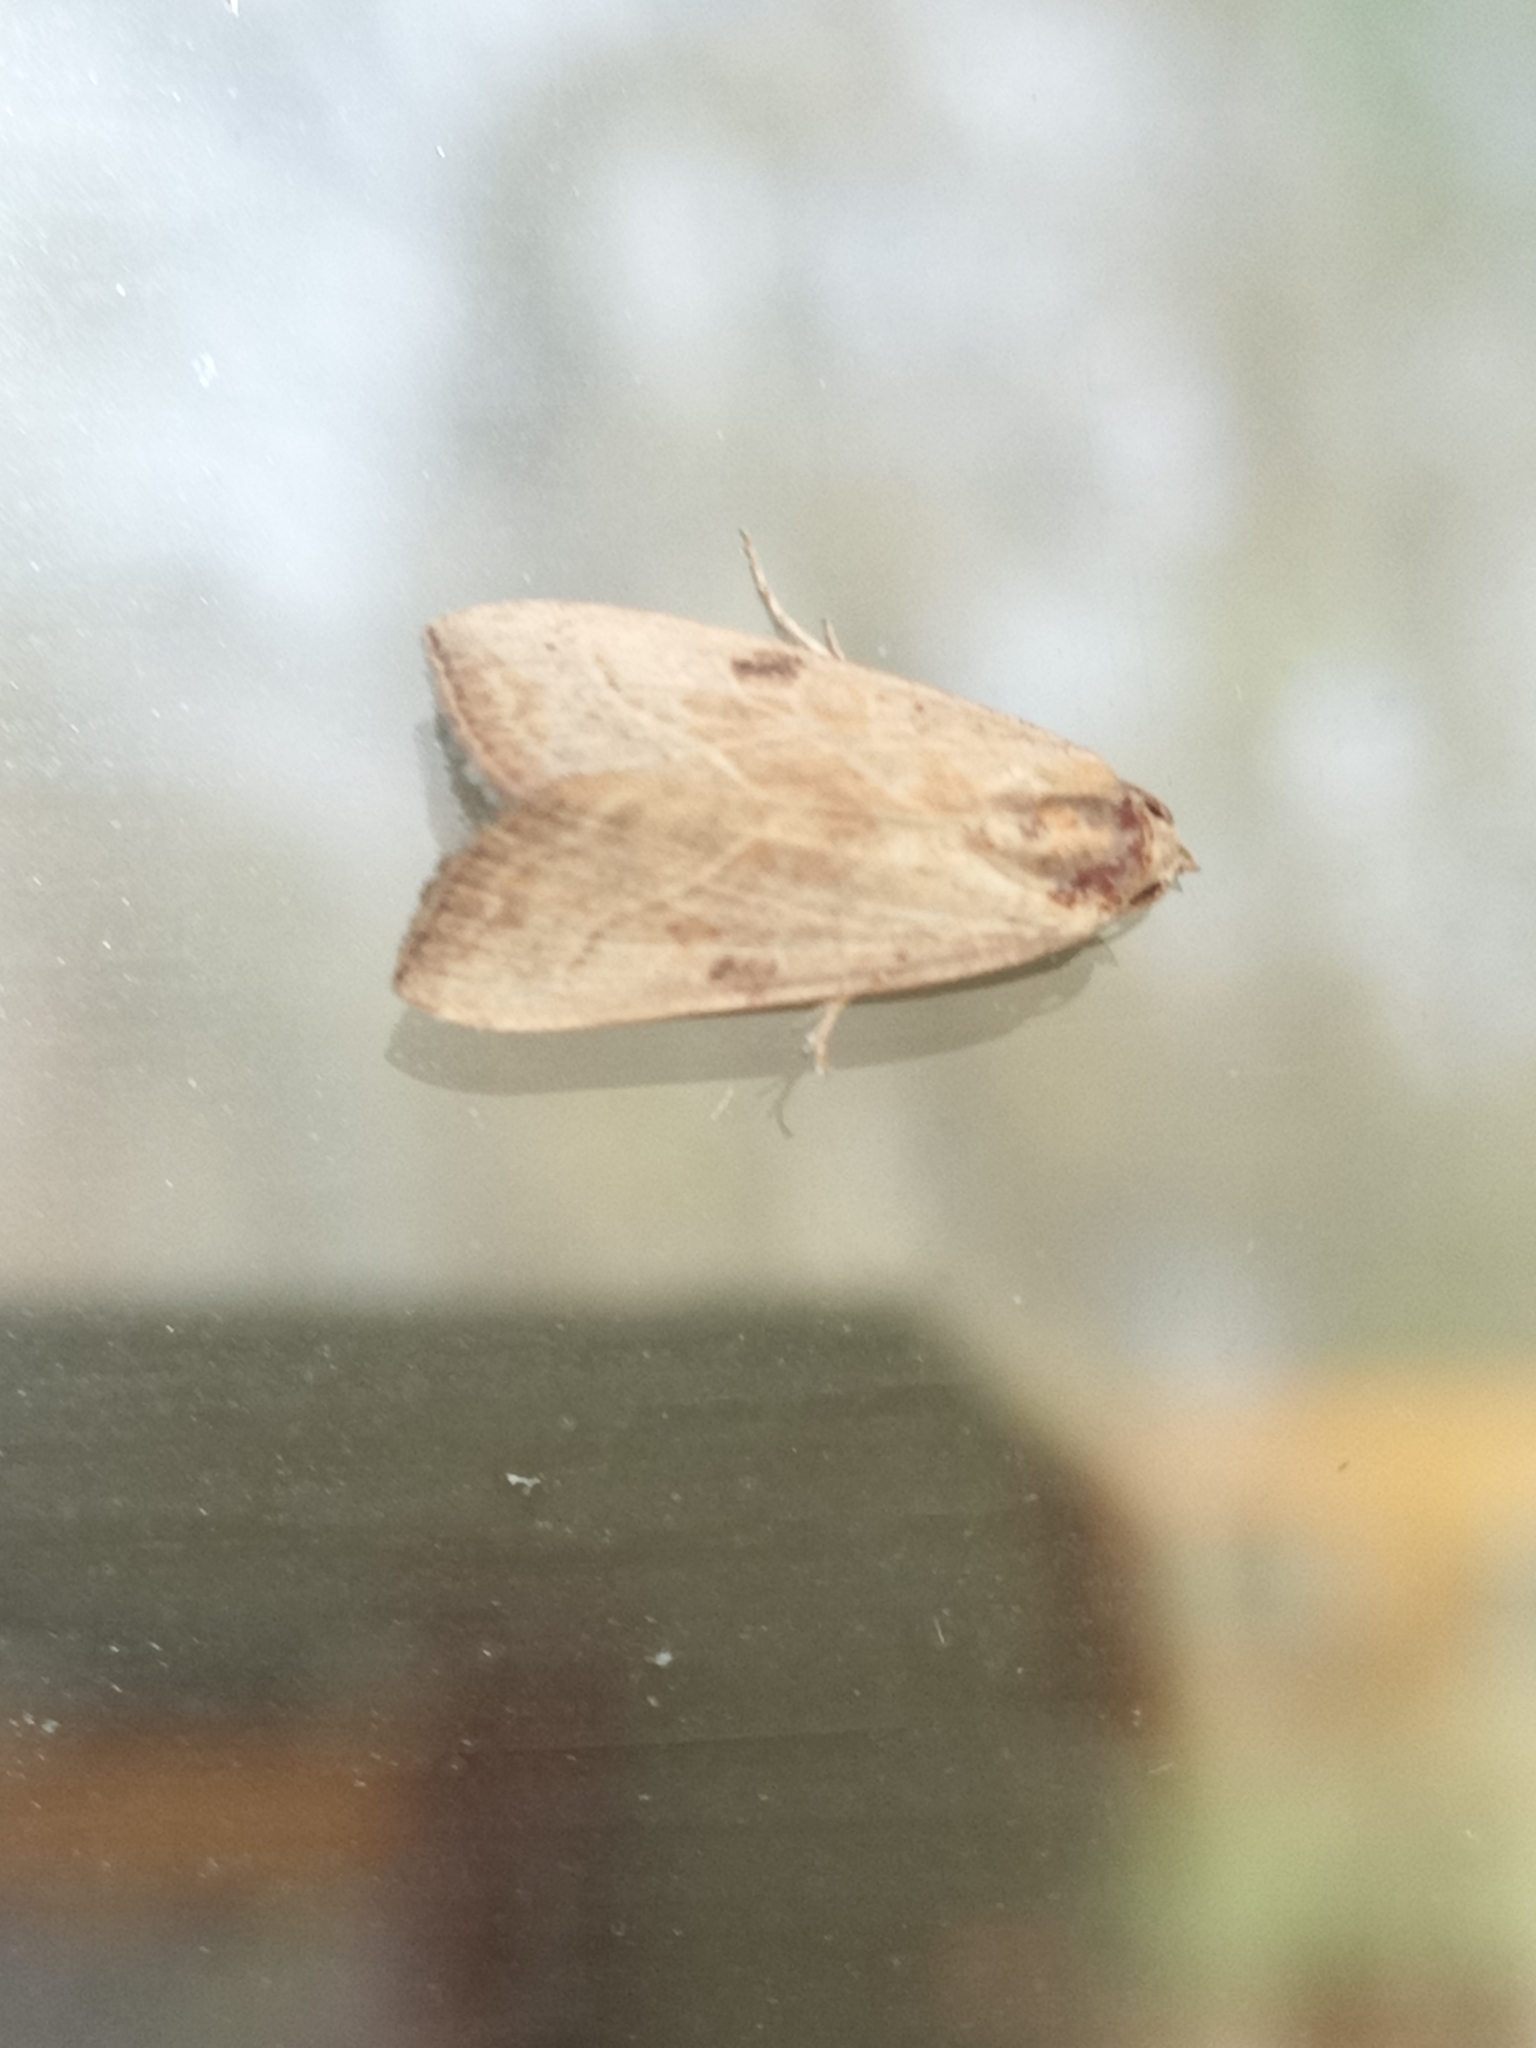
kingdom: Animalia
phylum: Arthropoda
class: Insecta
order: Lepidoptera
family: Noctuidae
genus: Galgula
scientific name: Galgula partita
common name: Wedgeling
